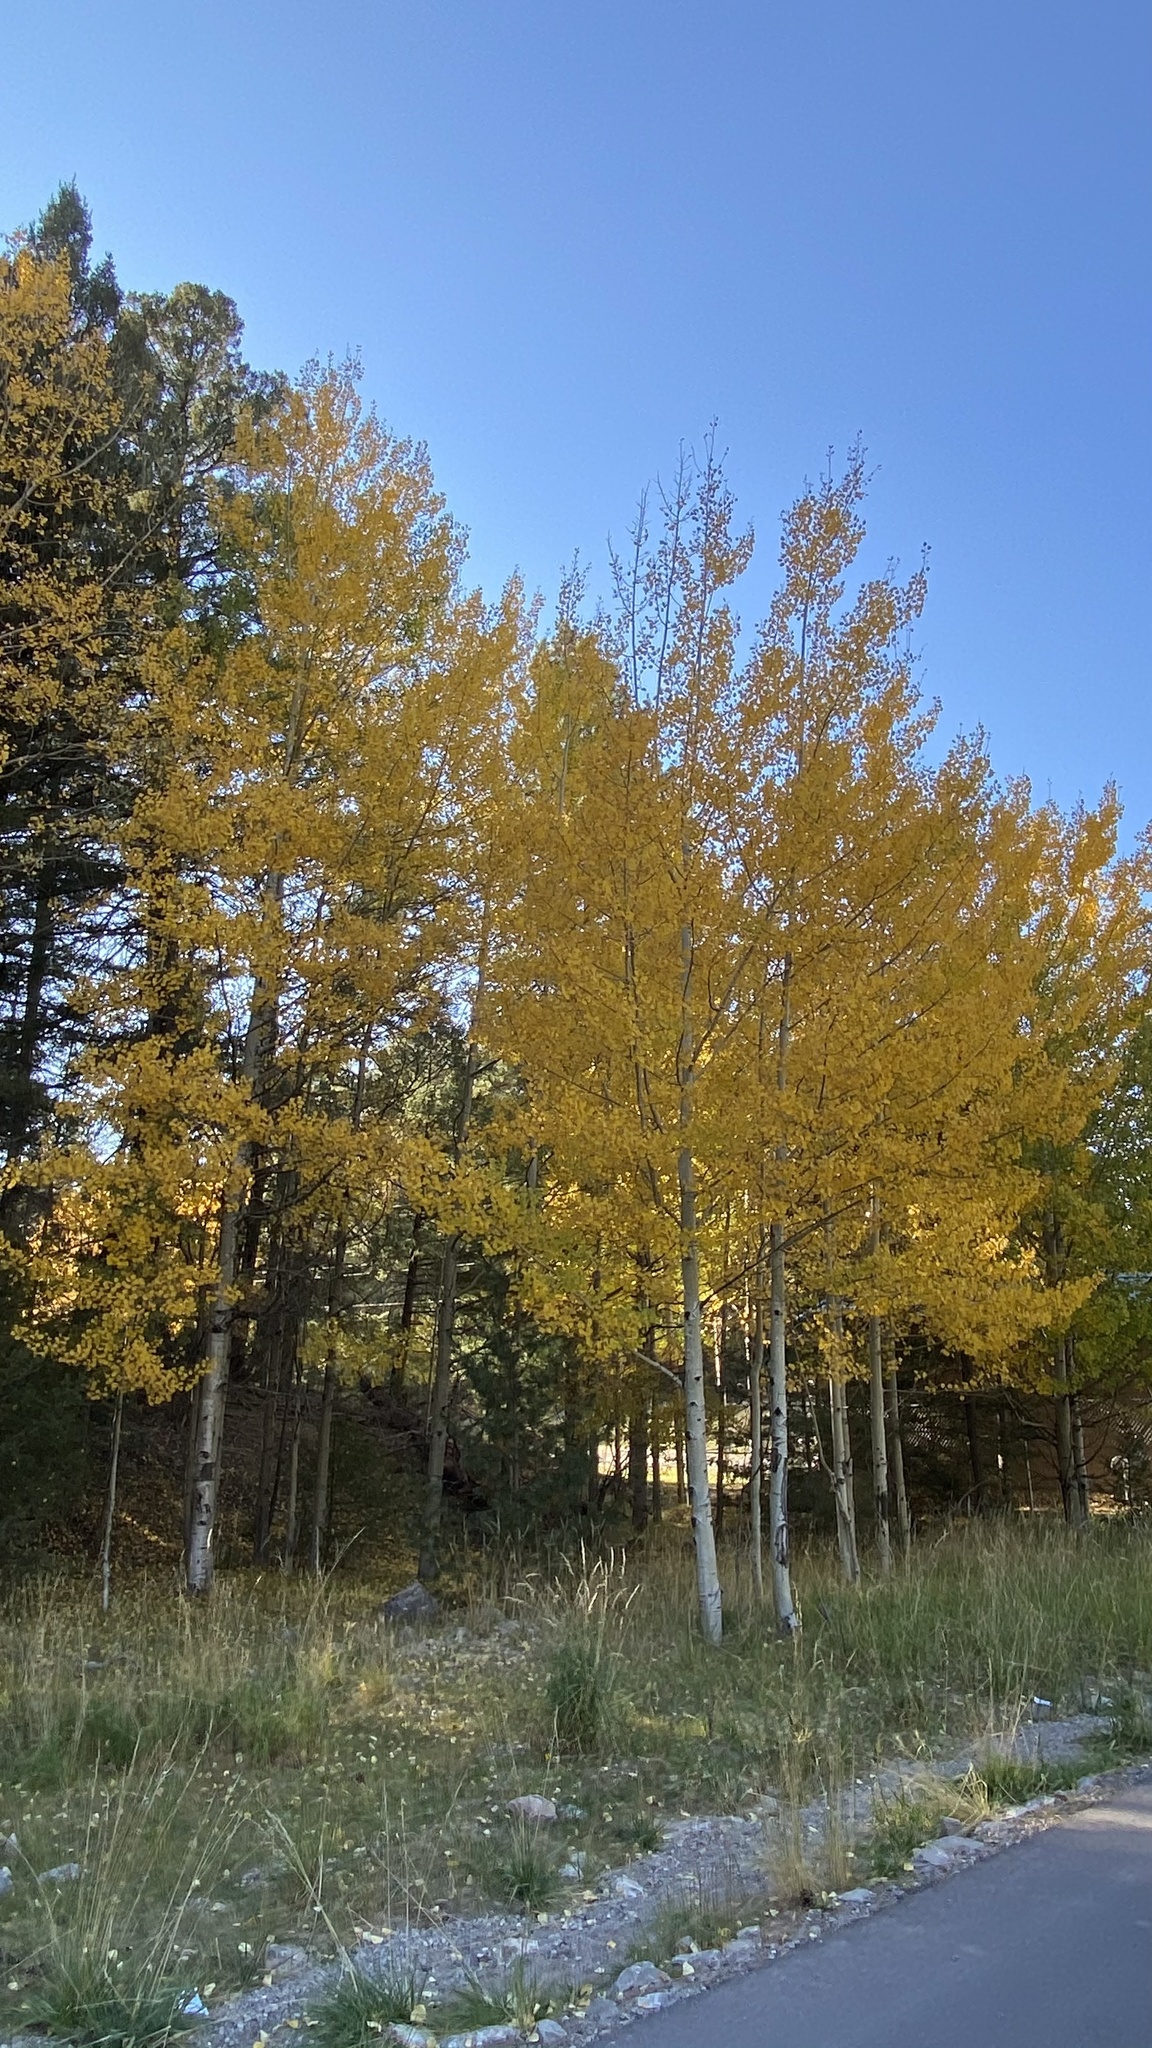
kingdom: Plantae
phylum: Tracheophyta
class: Magnoliopsida
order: Malpighiales
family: Salicaceae
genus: Populus
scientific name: Populus tremuloides
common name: Quaking aspen
